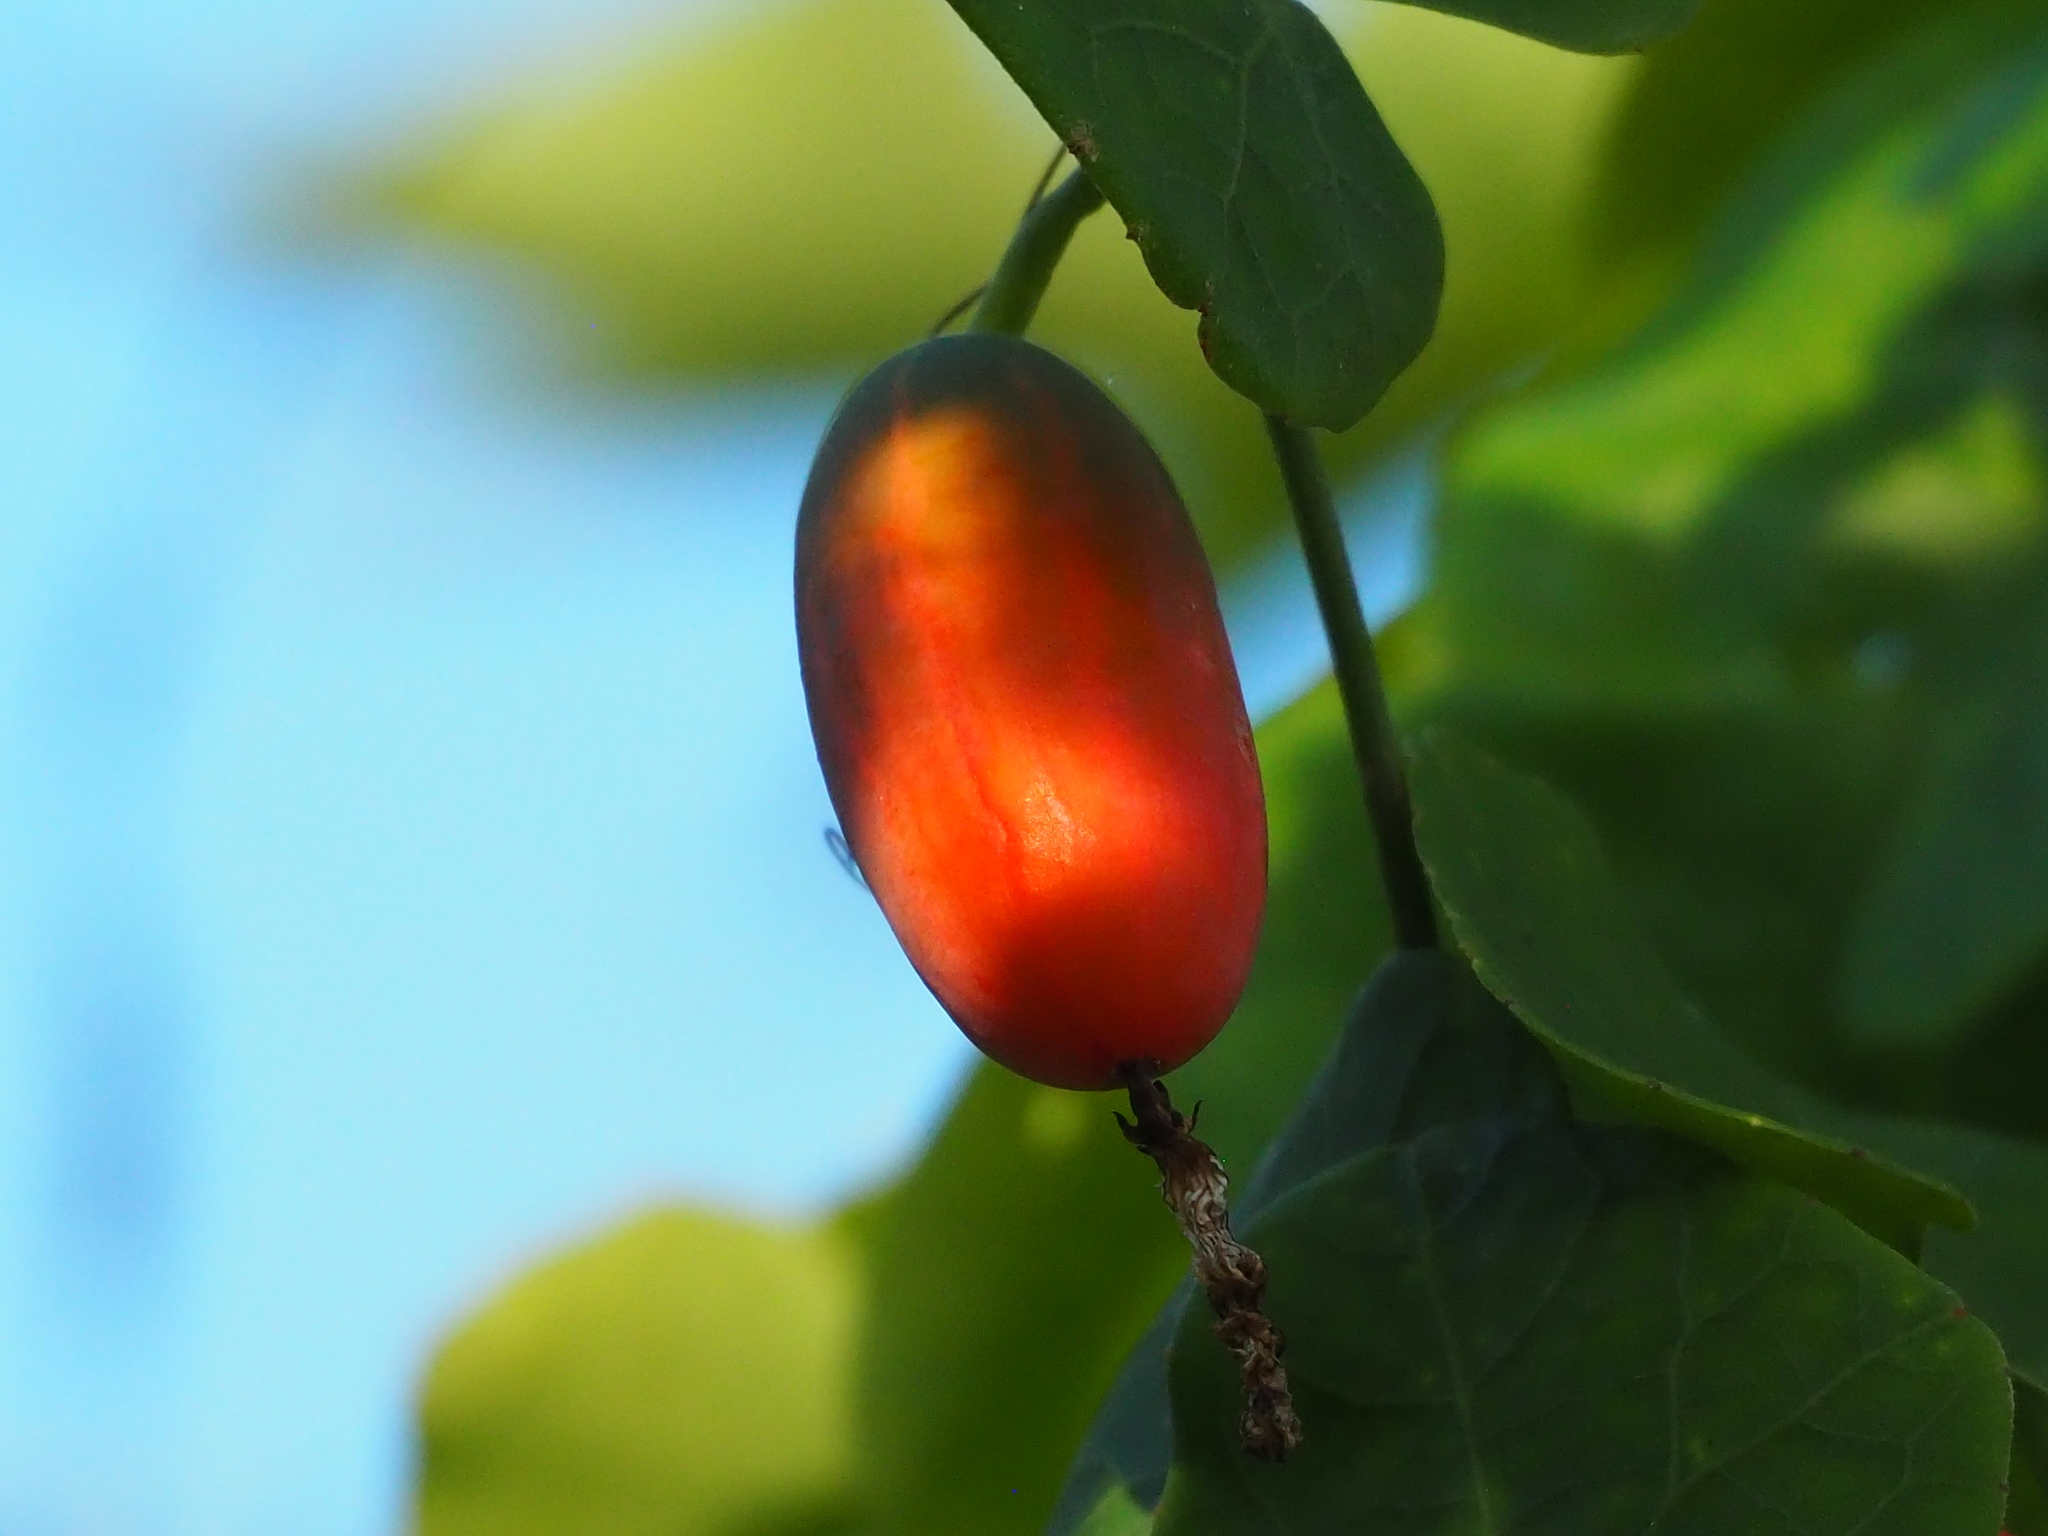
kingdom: Plantae
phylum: Tracheophyta
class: Magnoliopsida
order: Cucurbitales
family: Cucurbitaceae
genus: Coccinia
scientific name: Coccinia grandis
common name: Ivy gourd
